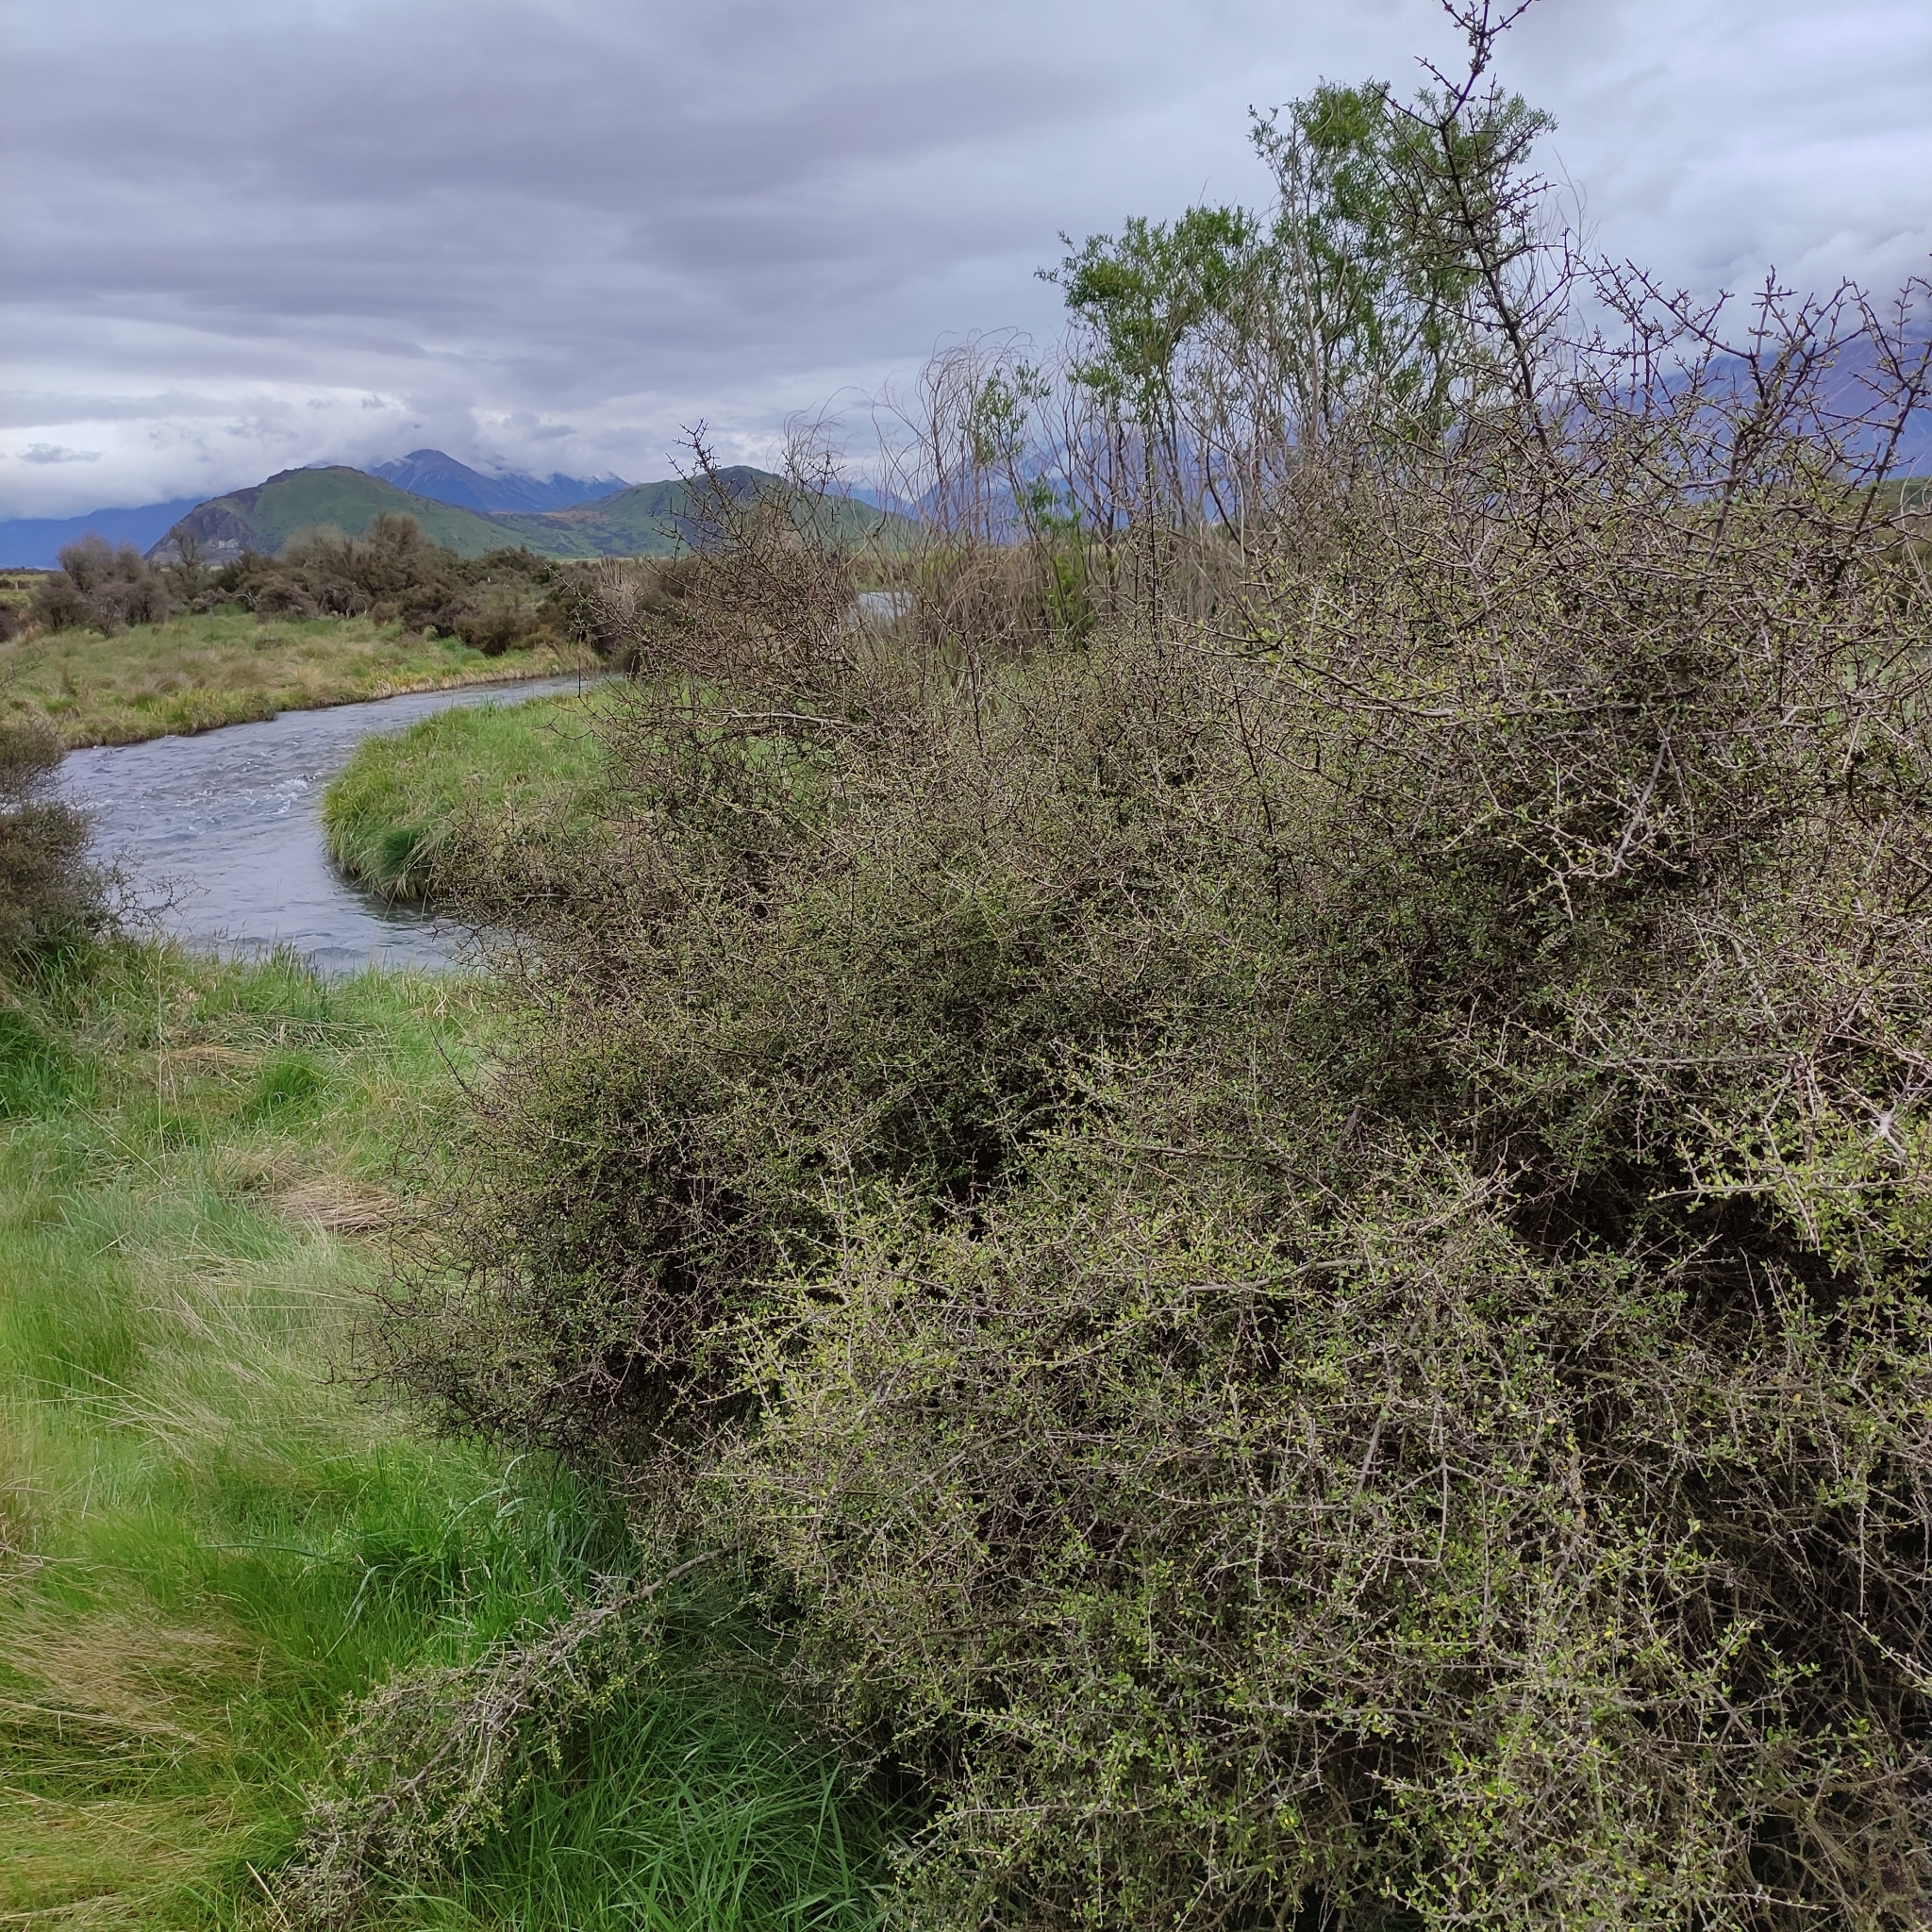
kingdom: Plantae
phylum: Tracheophyta
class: Magnoliopsida
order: Gentianales
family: Rubiaceae
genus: Coprosma
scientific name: Coprosma propinqua
